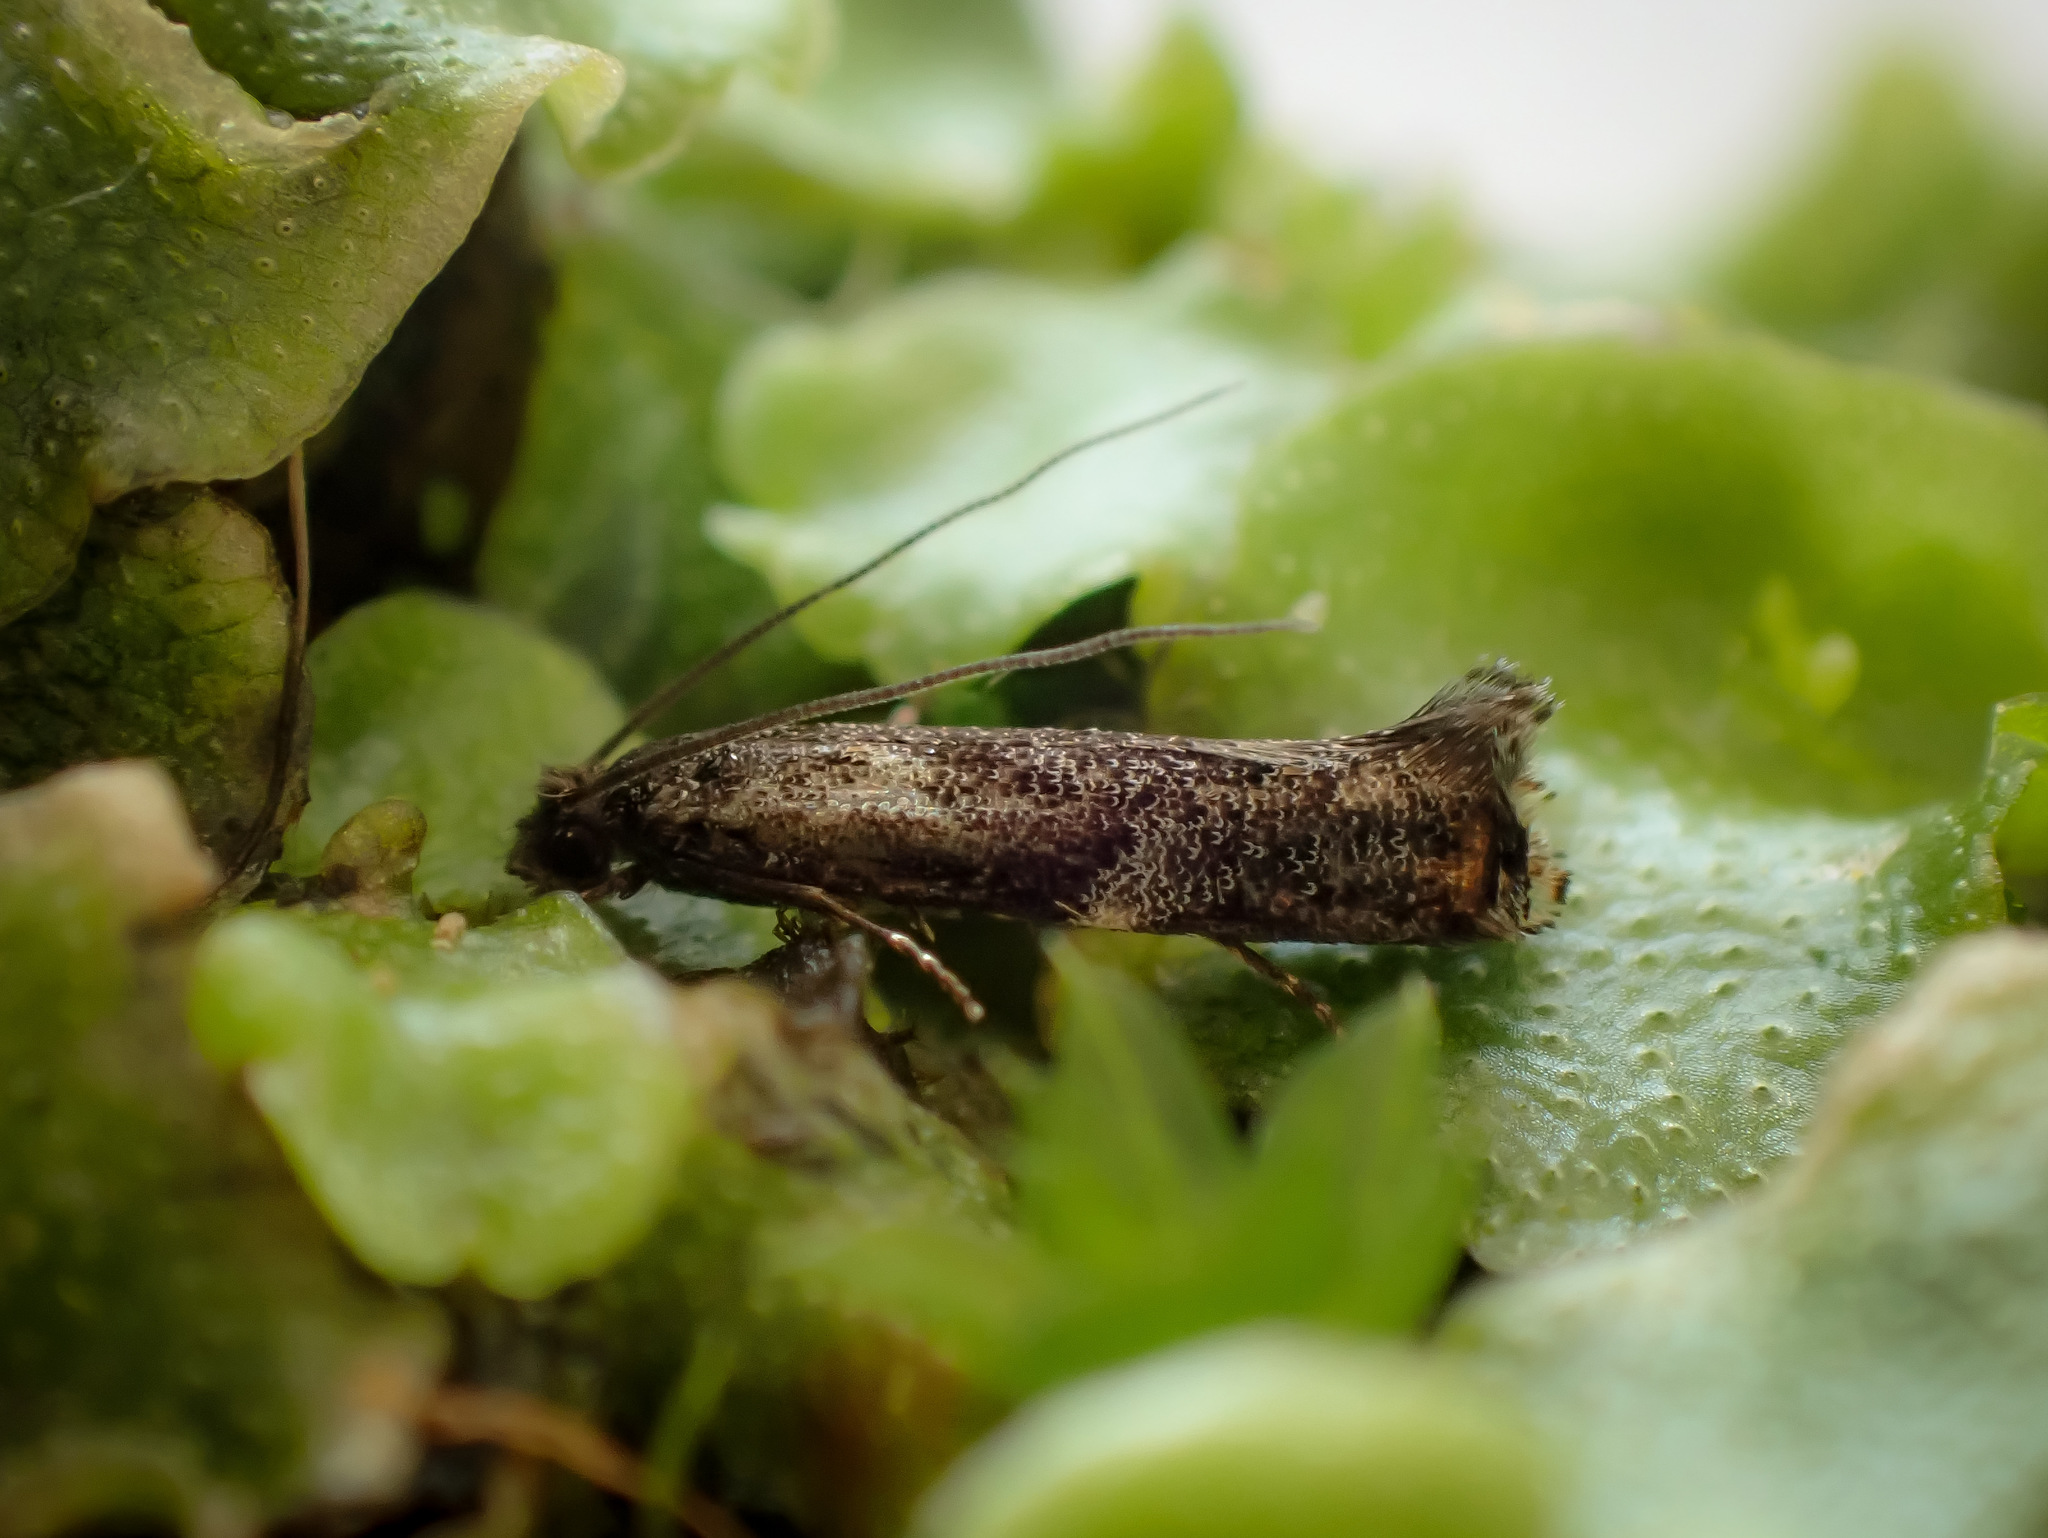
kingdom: Animalia
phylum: Arthropoda
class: Insecta
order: Lepidoptera
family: Tineidae
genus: Erechthias
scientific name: Erechthias externella
